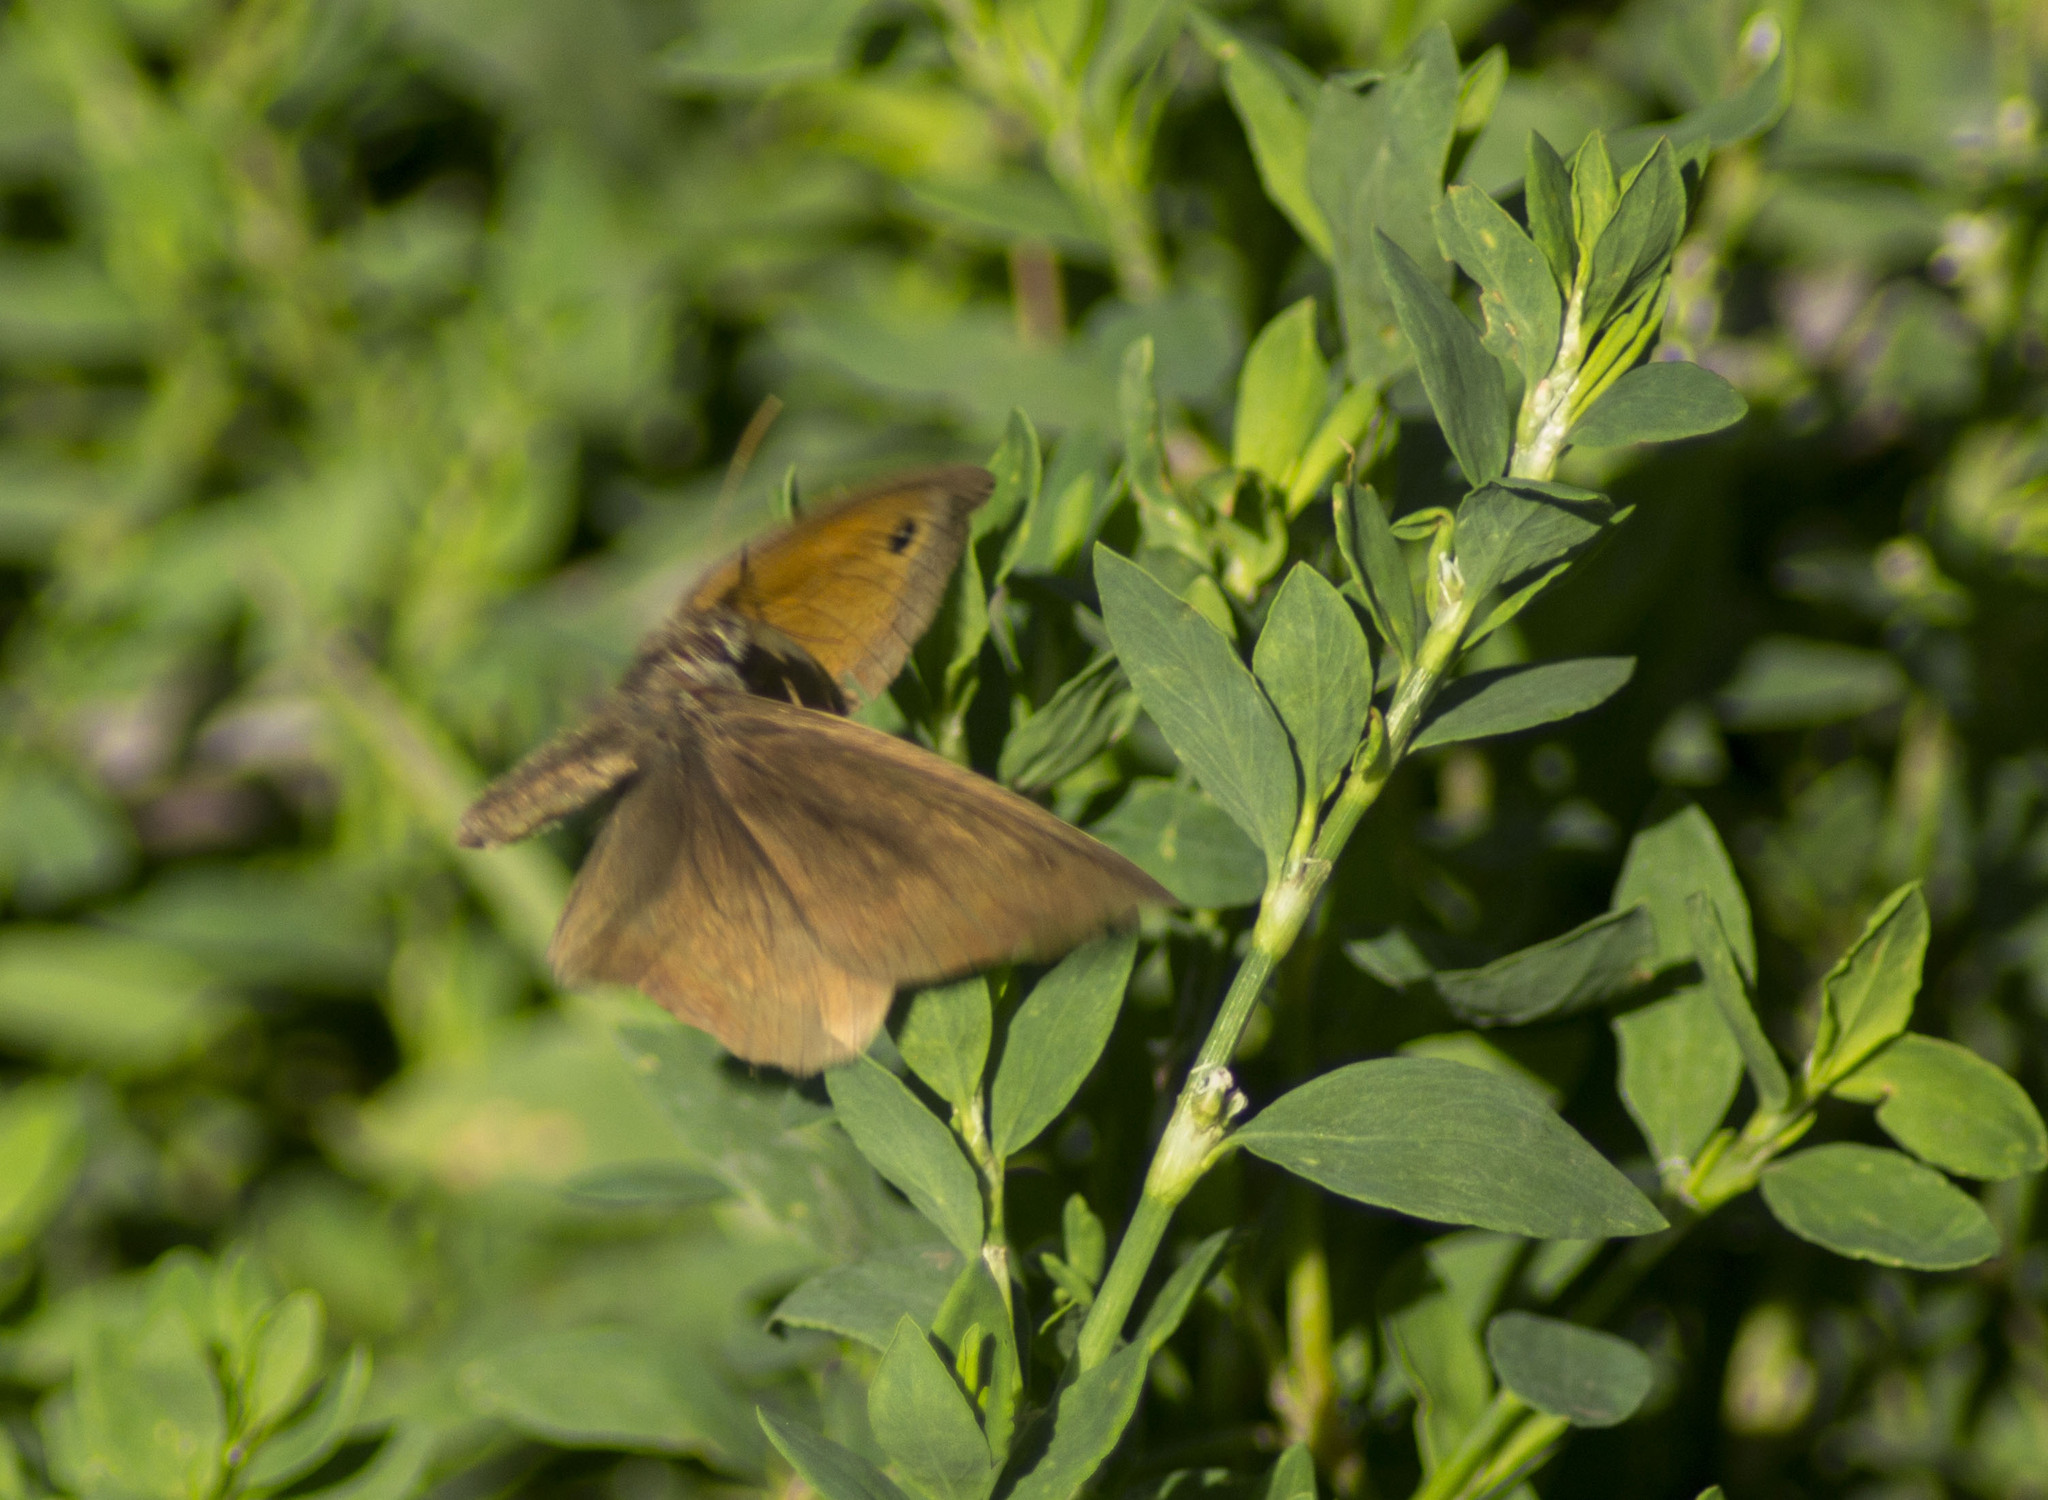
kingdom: Animalia
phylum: Arthropoda
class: Insecta
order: Lepidoptera
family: Nymphalidae
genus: Maniola
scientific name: Maniola jurtina
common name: Meadow brown
